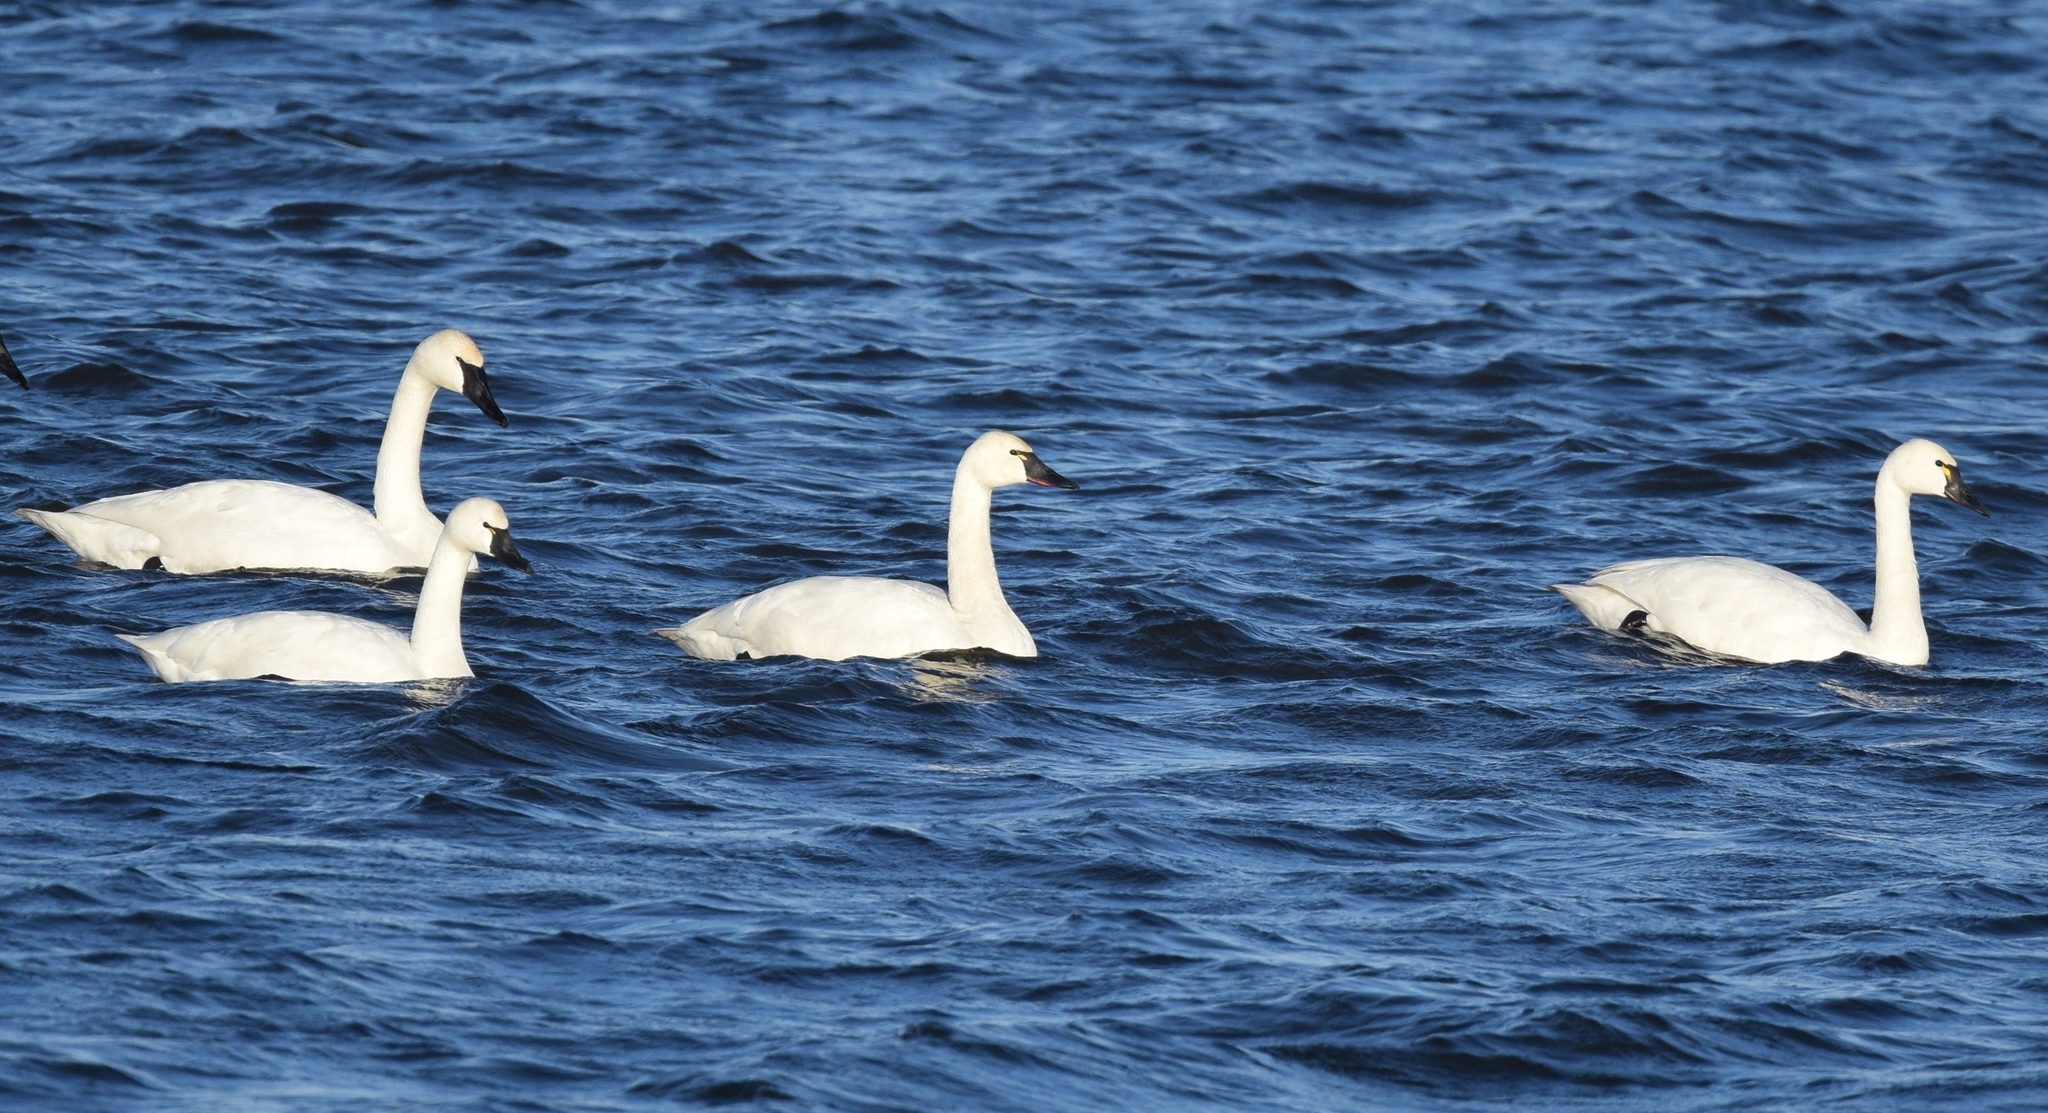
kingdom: Animalia
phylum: Chordata
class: Aves
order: Anseriformes
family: Anatidae
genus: Cygnus
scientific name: Cygnus columbianus
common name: Tundra swan
